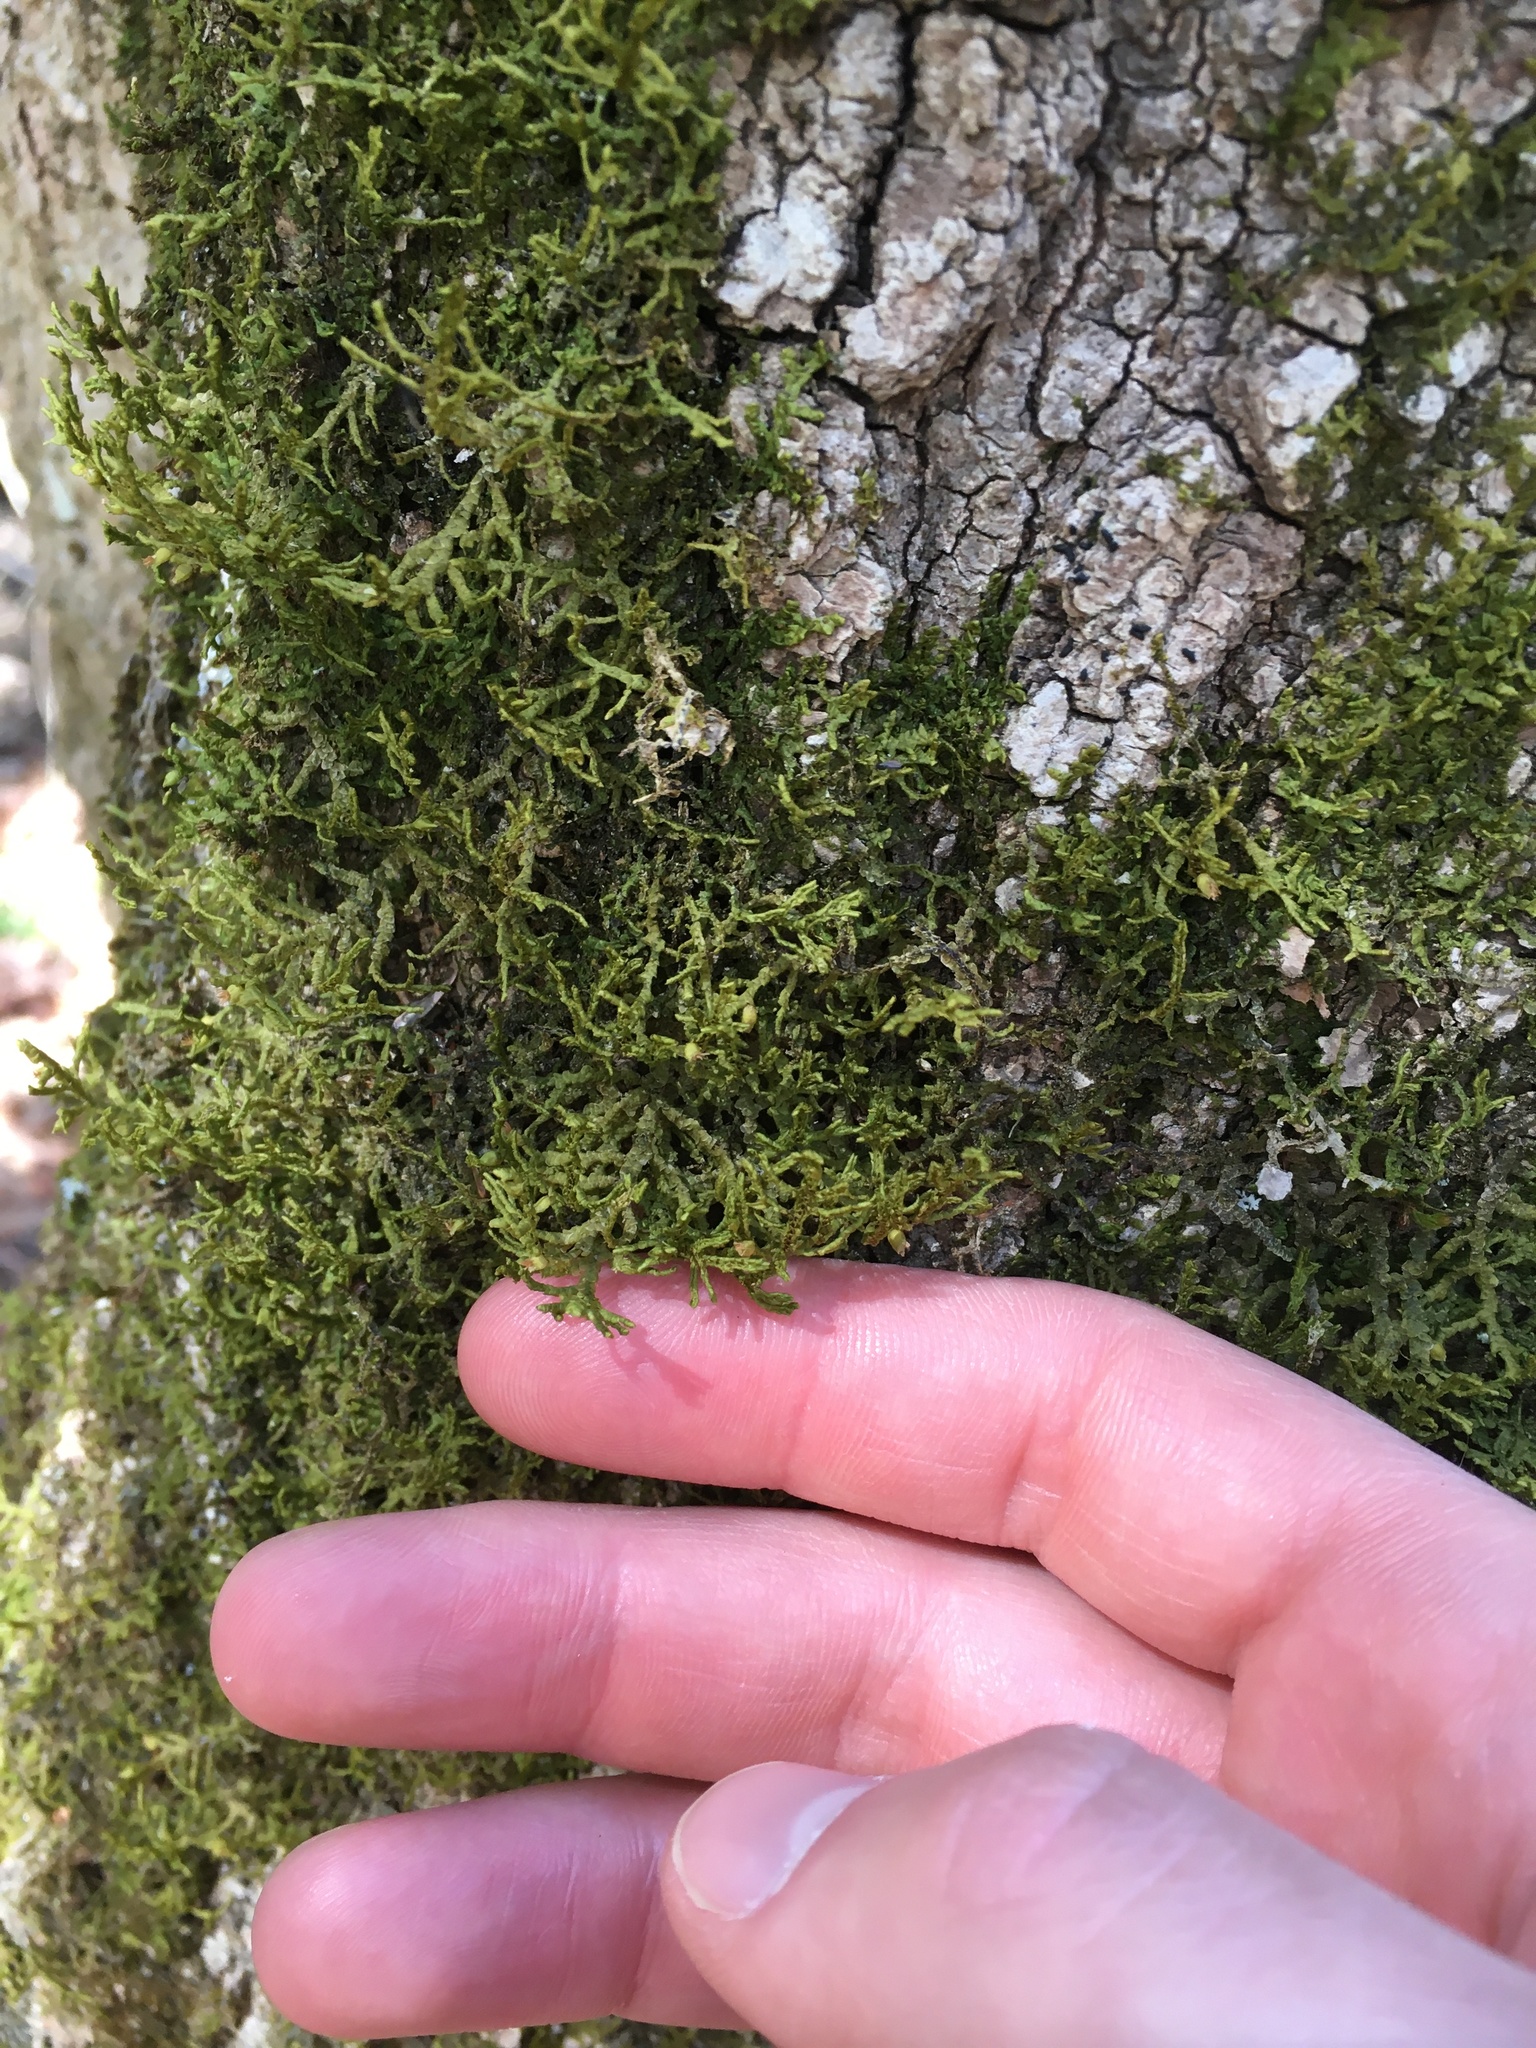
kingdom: Plantae
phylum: Marchantiophyta
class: Jungermanniopsida
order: Porellales
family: Porellaceae
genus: Porella
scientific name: Porella platyphylla
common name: Wall scalewort
